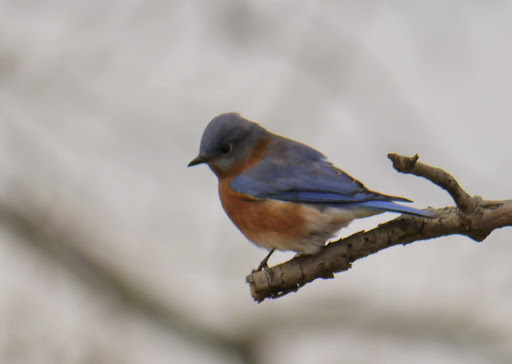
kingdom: Animalia
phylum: Chordata
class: Aves
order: Passeriformes
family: Turdidae
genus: Sialia
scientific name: Sialia sialis
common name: Eastern bluebird
